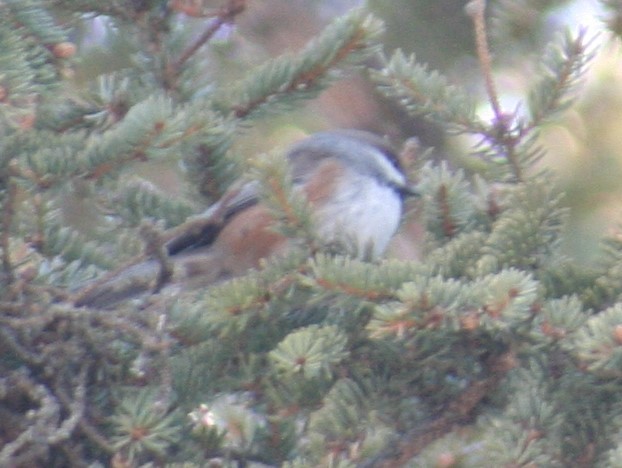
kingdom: Animalia
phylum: Chordata
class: Aves
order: Passeriformes
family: Paridae
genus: Poecile
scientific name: Poecile hudsonicus
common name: Boreal chickadee
